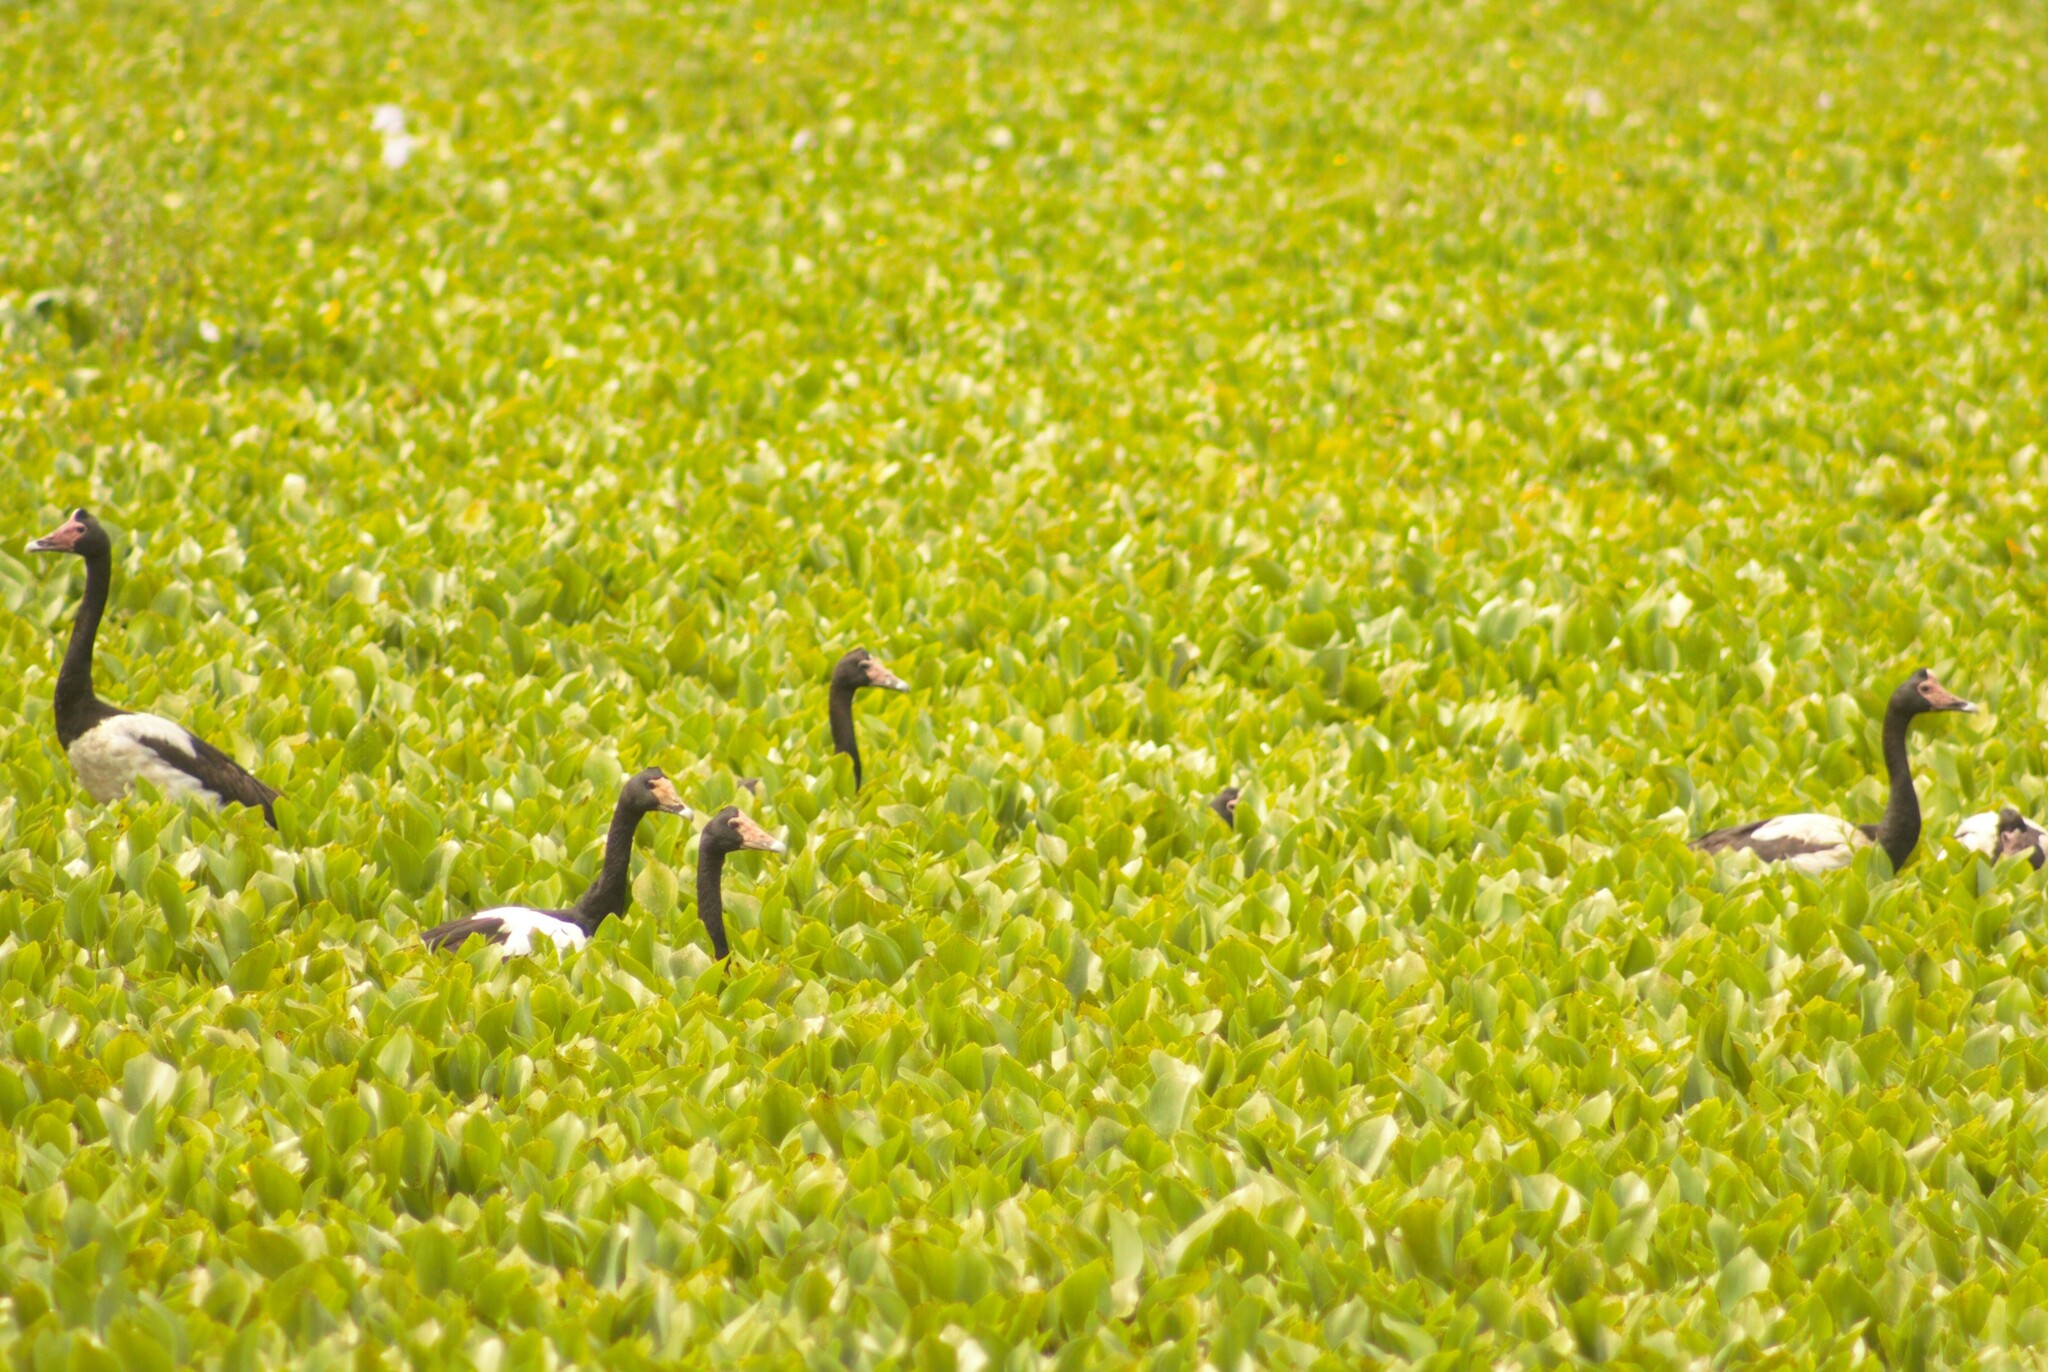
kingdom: Animalia
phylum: Chordata
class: Aves
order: Anseriformes
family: Anseranatidae
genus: Anseranas
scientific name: Anseranas semipalmata
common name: Magpie goose
